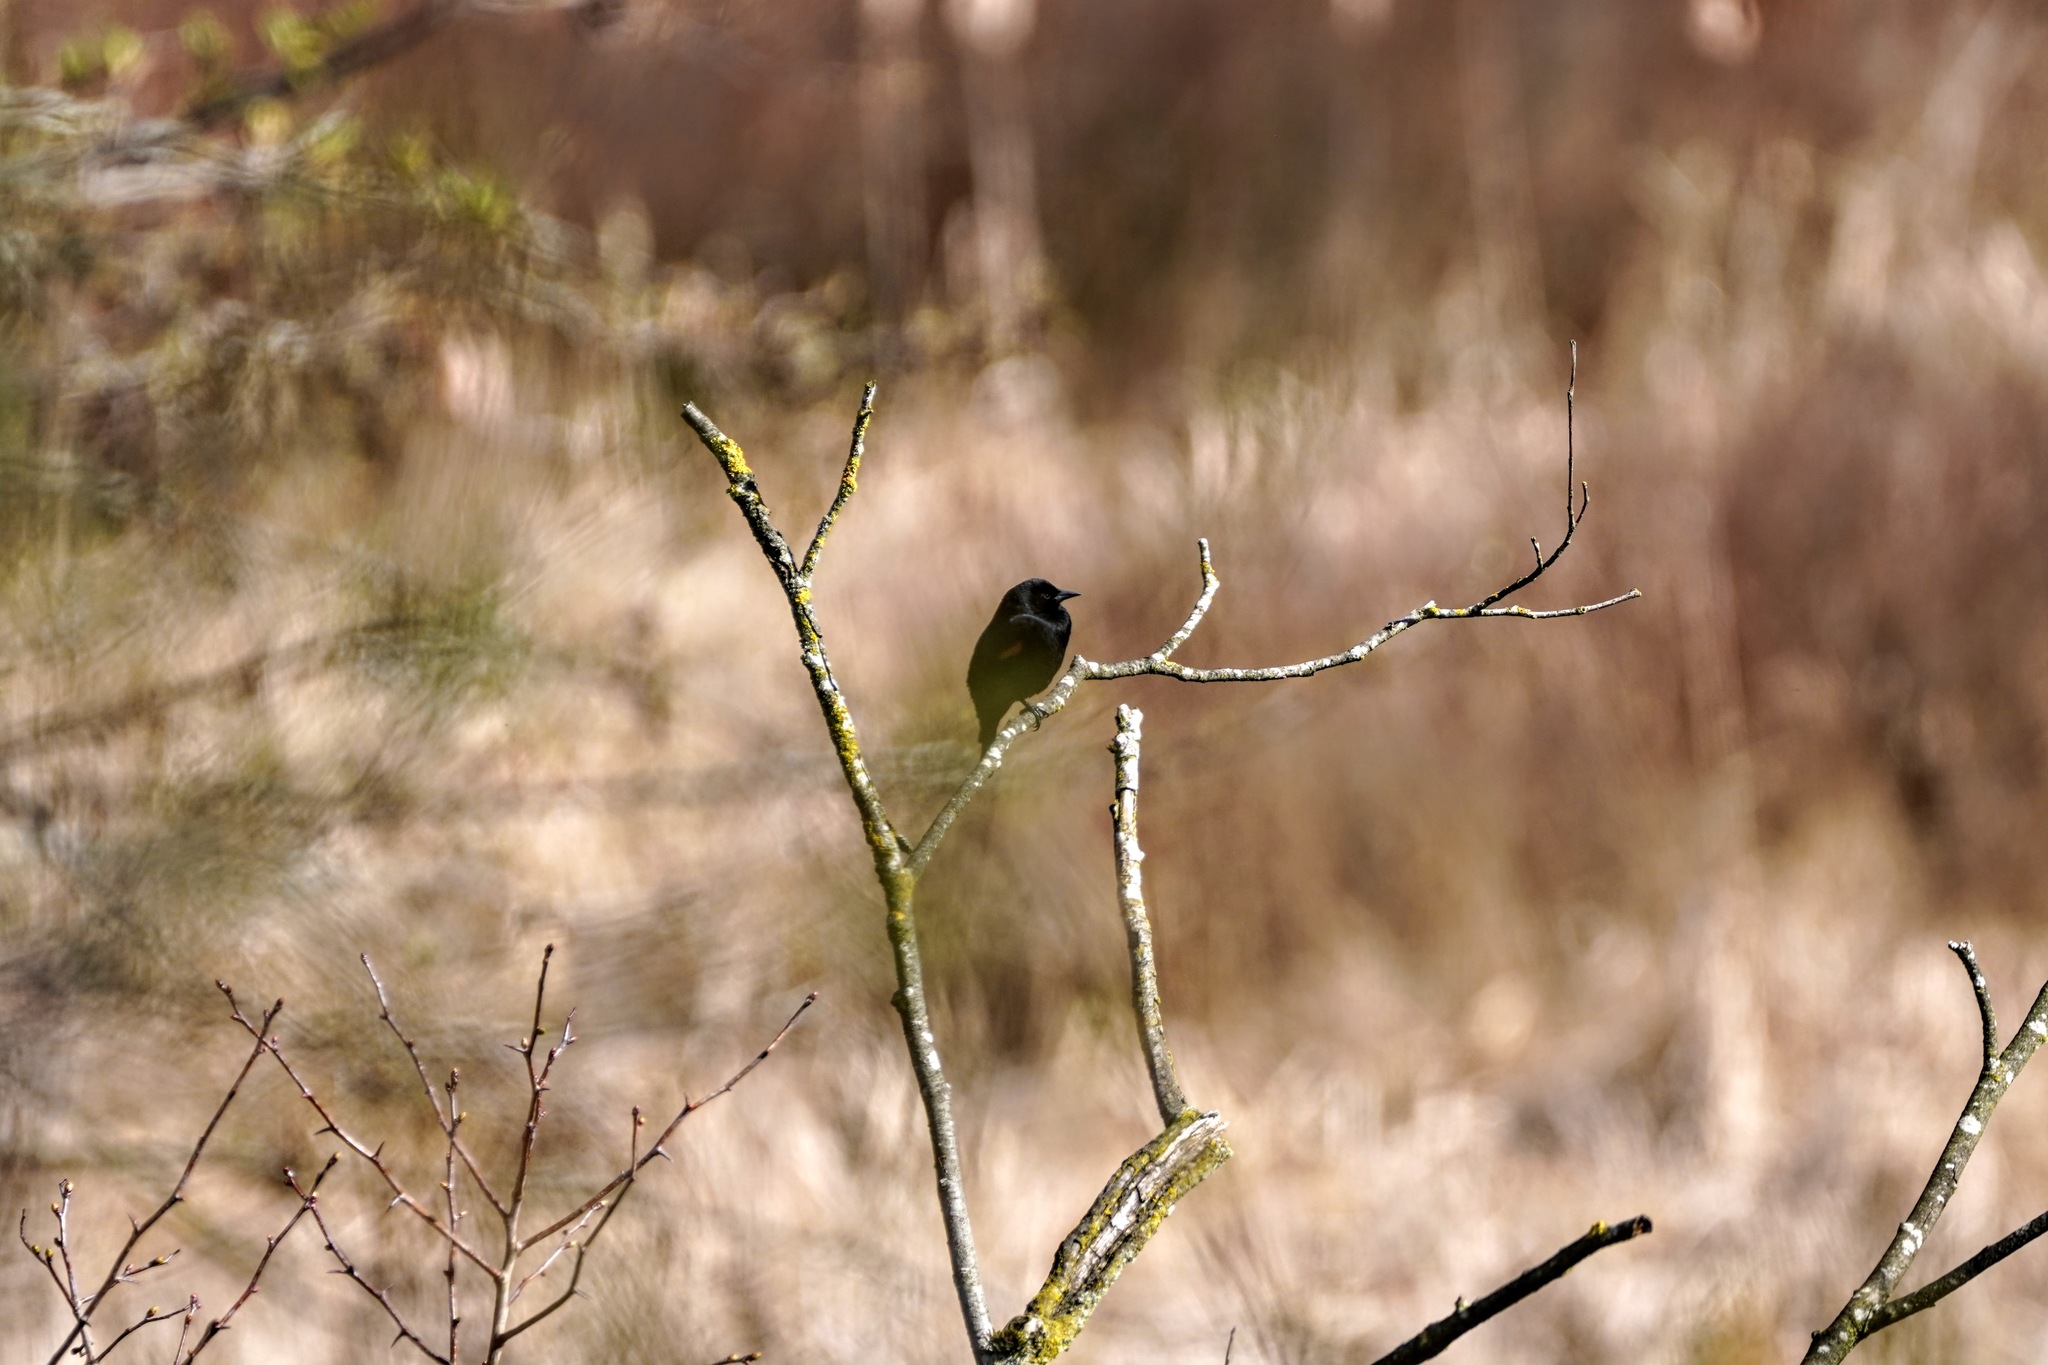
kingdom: Animalia
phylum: Chordata
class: Aves
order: Passeriformes
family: Icteridae
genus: Agelaius
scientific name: Agelaius phoeniceus
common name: Red-winged blackbird
